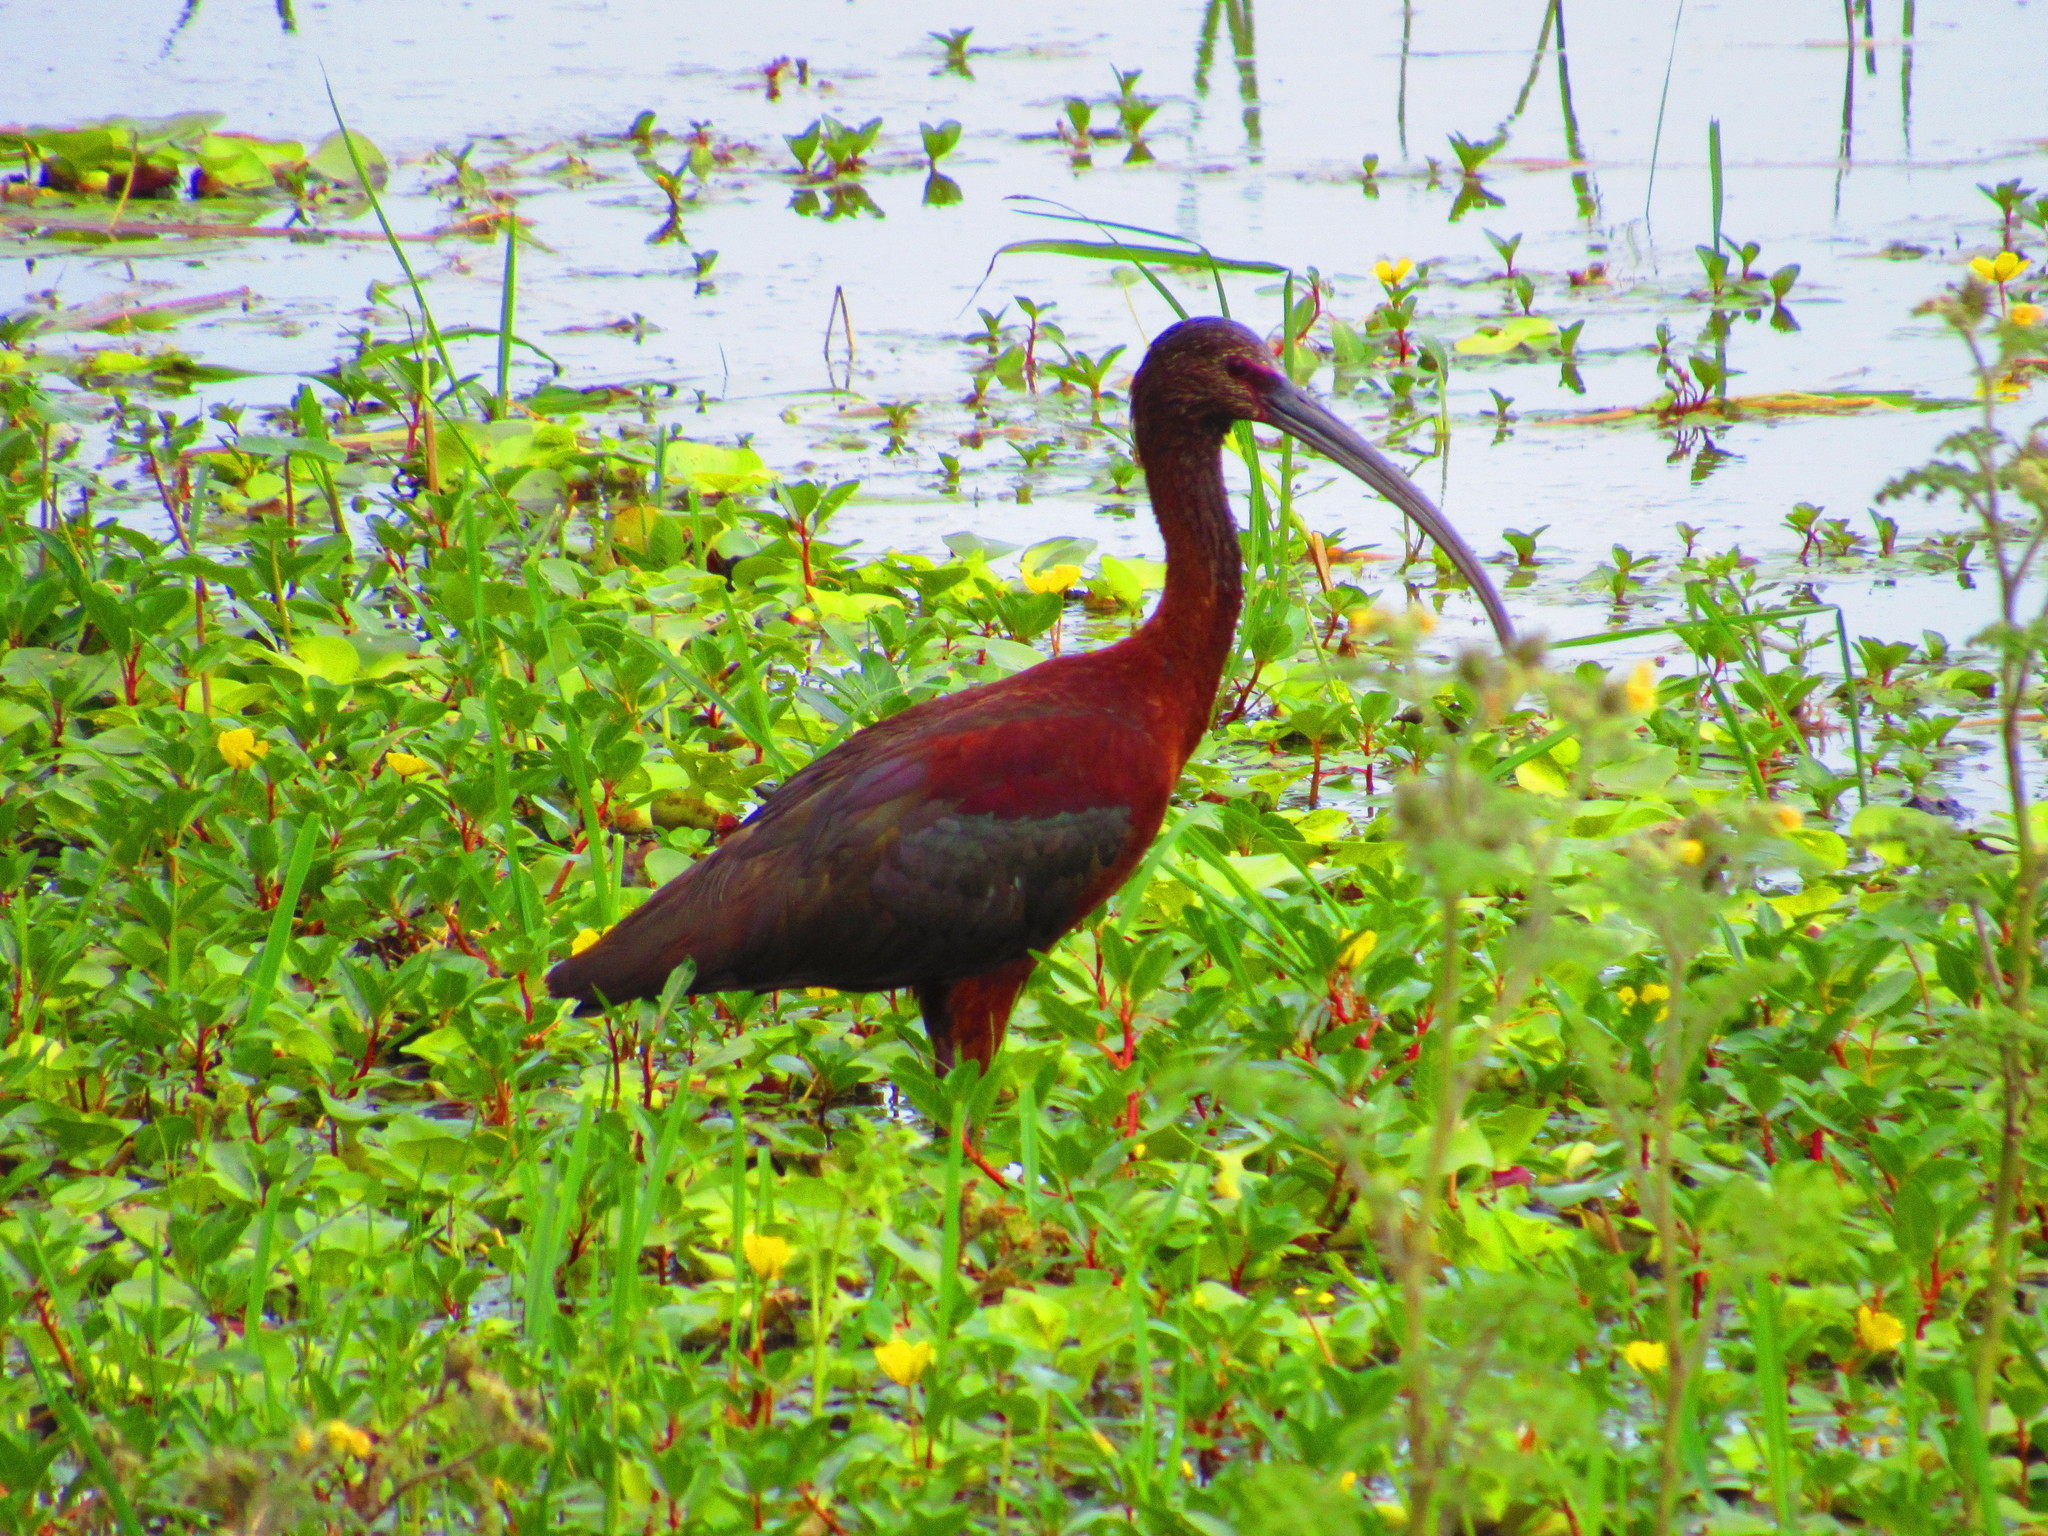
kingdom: Animalia
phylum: Chordata
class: Aves
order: Pelecaniformes
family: Threskiornithidae
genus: Plegadis
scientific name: Plegadis chihi
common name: White-faced ibis
